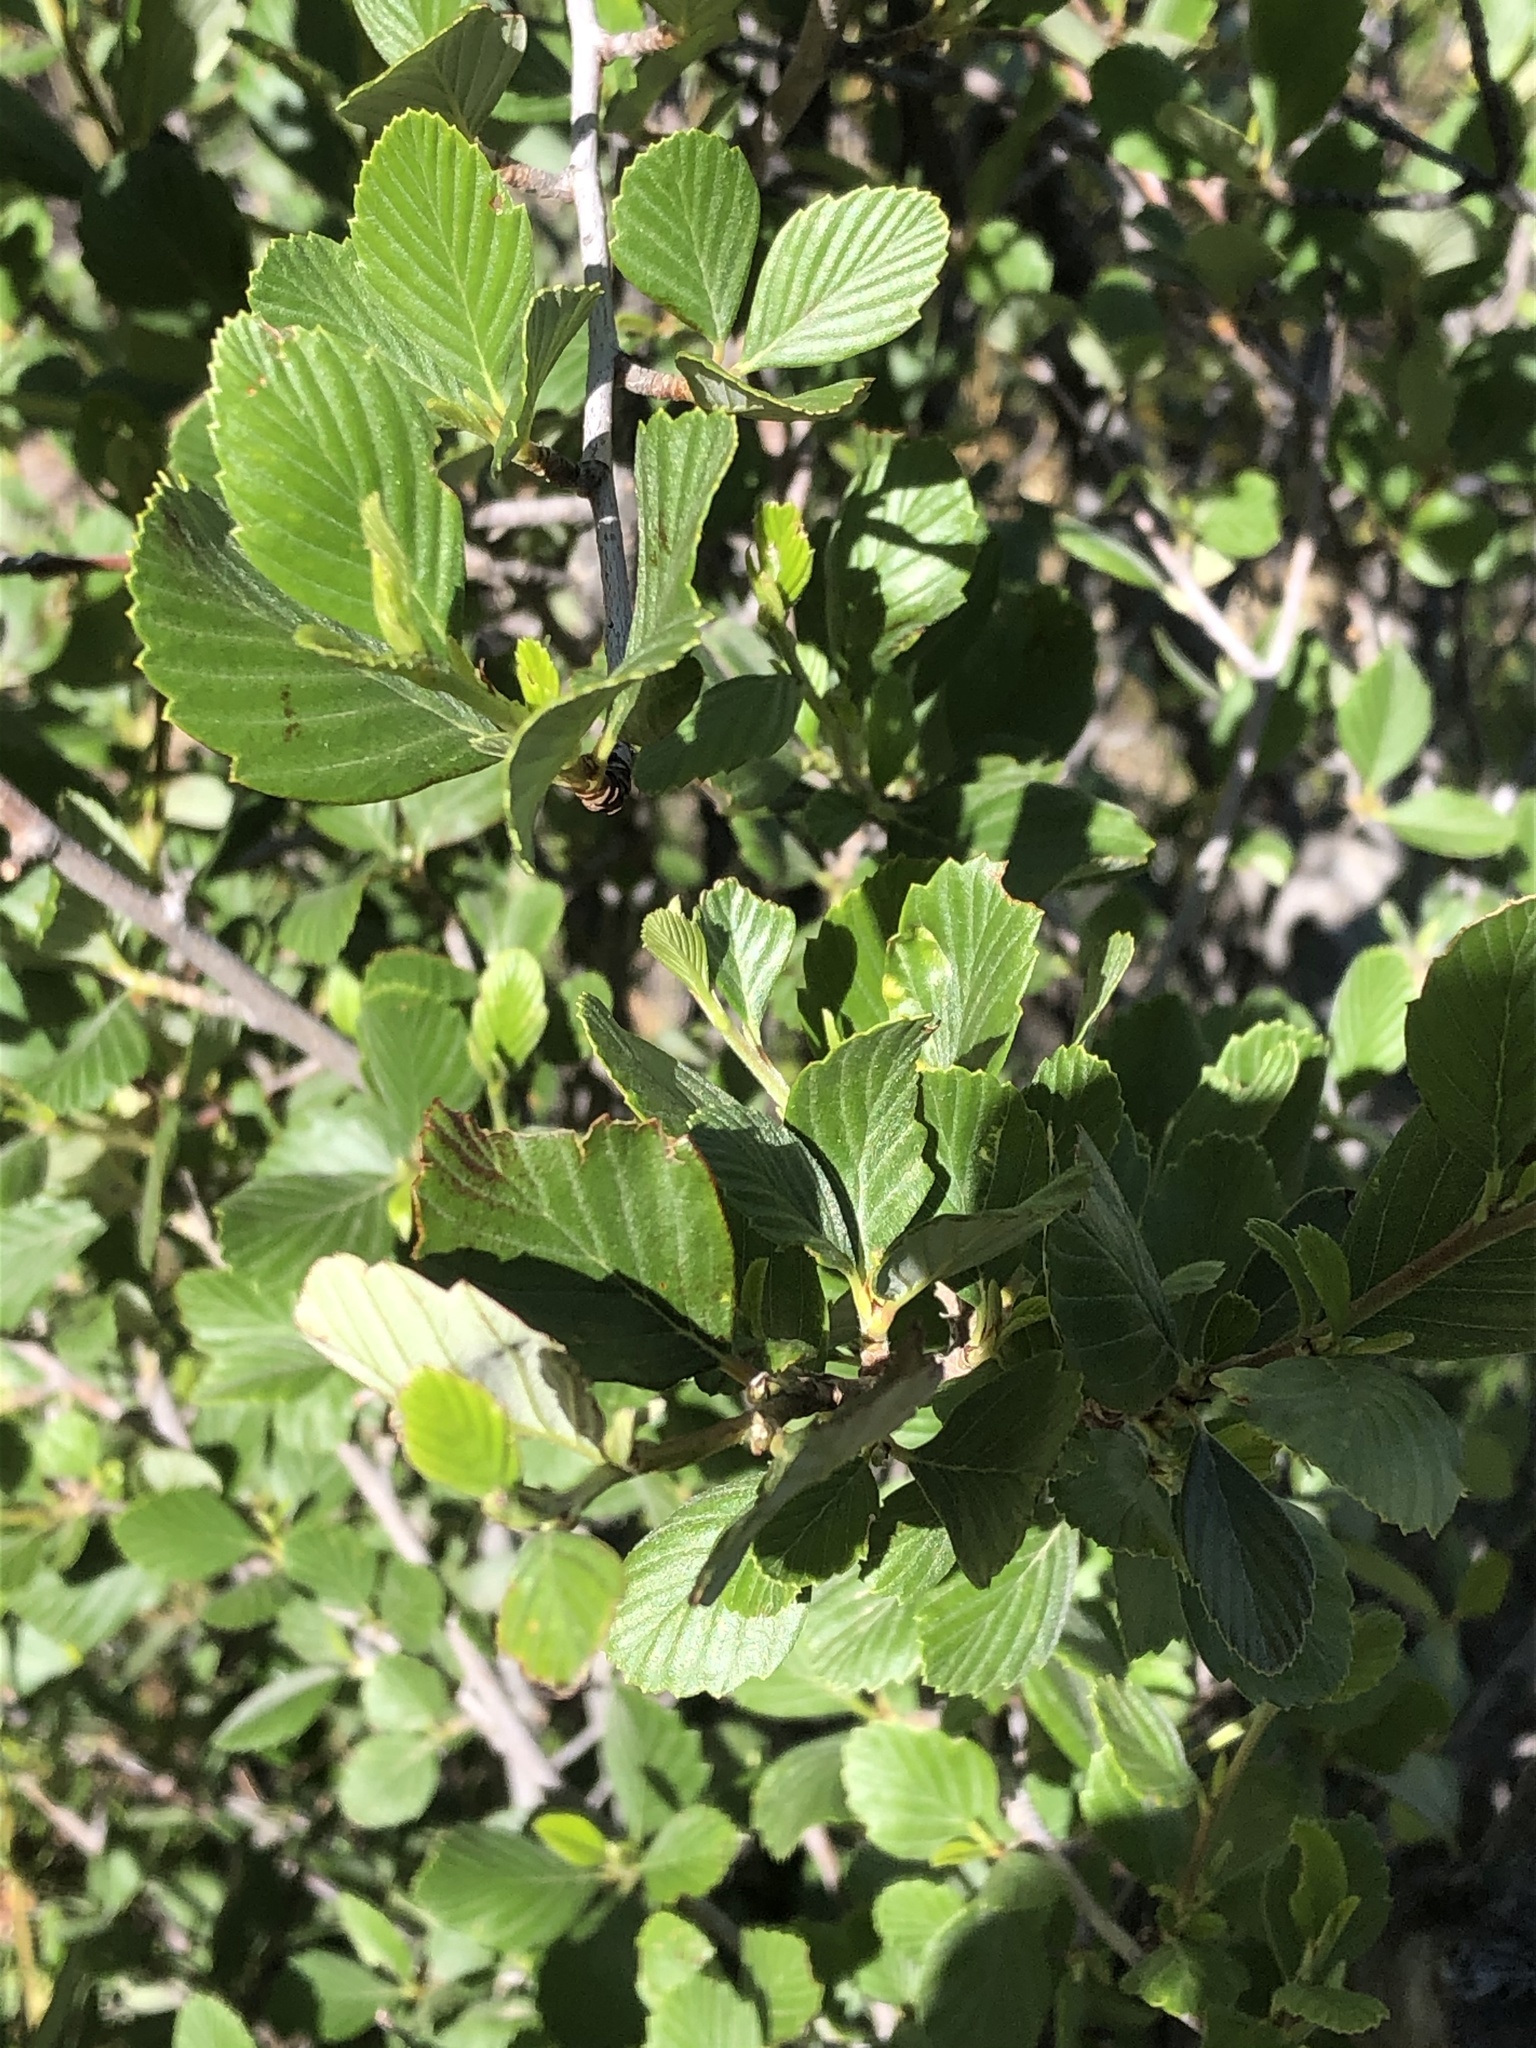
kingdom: Plantae
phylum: Tracheophyta
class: Magnoliopsida
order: Rosales
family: Rosaceae
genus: Cercocarpus
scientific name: Cercocarpus montanus
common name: Alder-leaf cercocarpus
